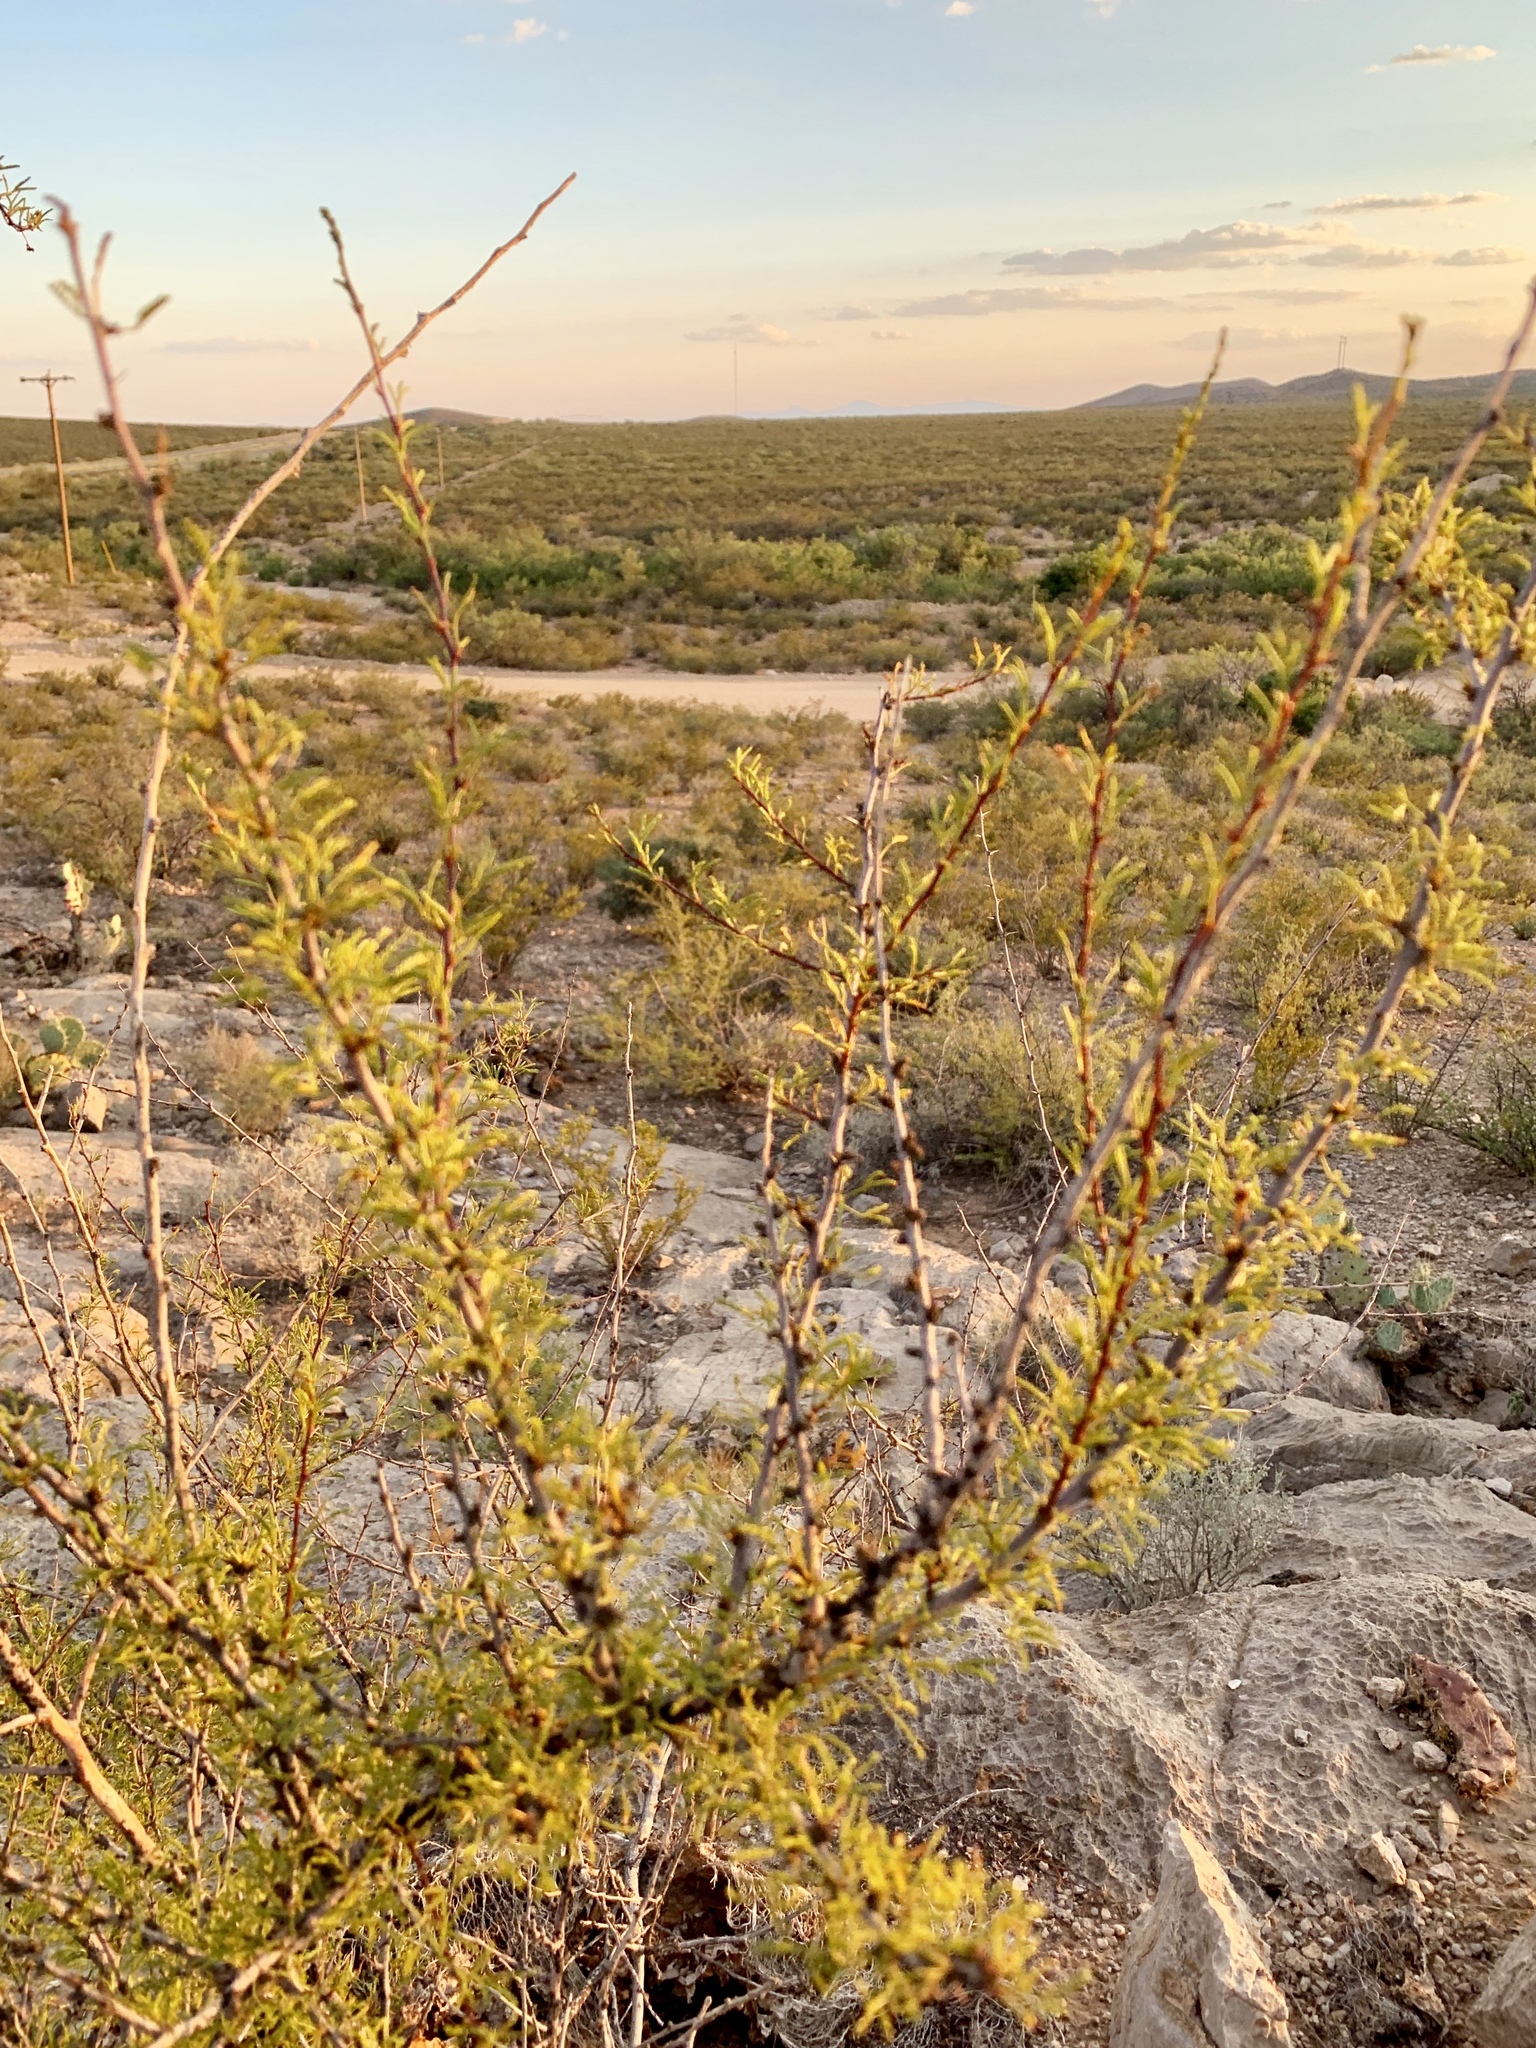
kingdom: Plantae
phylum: Tracheophyta
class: Magnoliopsida
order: Fabales
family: Fabaceae
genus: Vachellia
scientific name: Vachellia constricta
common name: Mescat acacia
